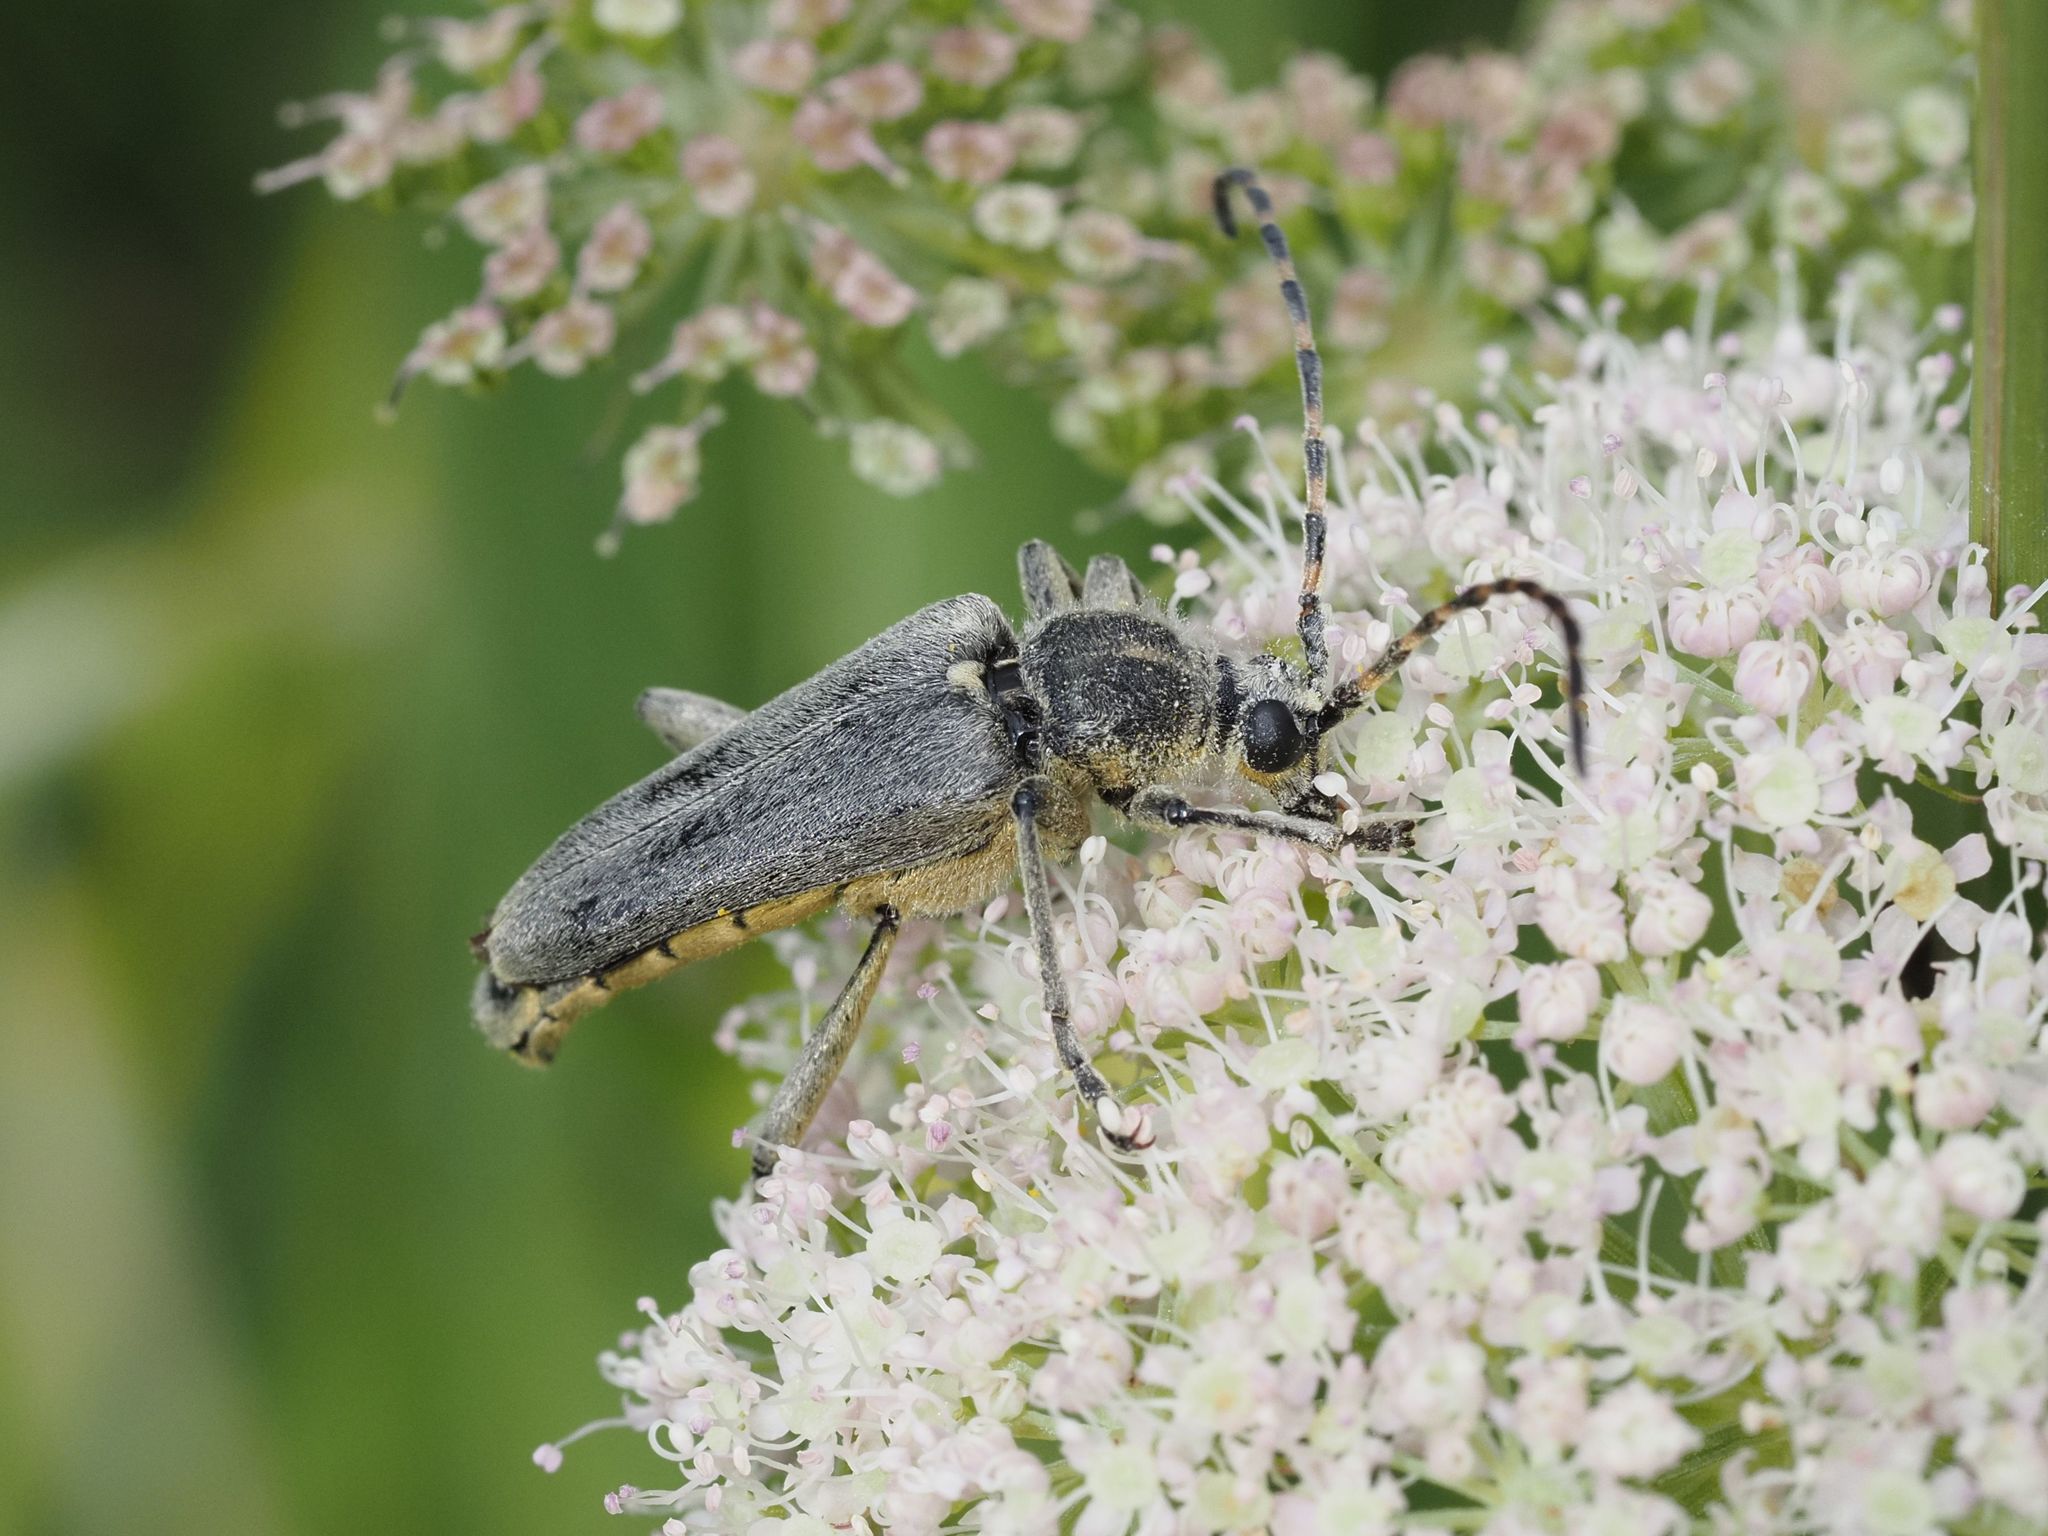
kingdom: Animalia
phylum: Arthropoda
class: Insecta
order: Coleoptera
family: Cerambycidae
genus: Lepturobosca
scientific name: Lepturobosca virens
